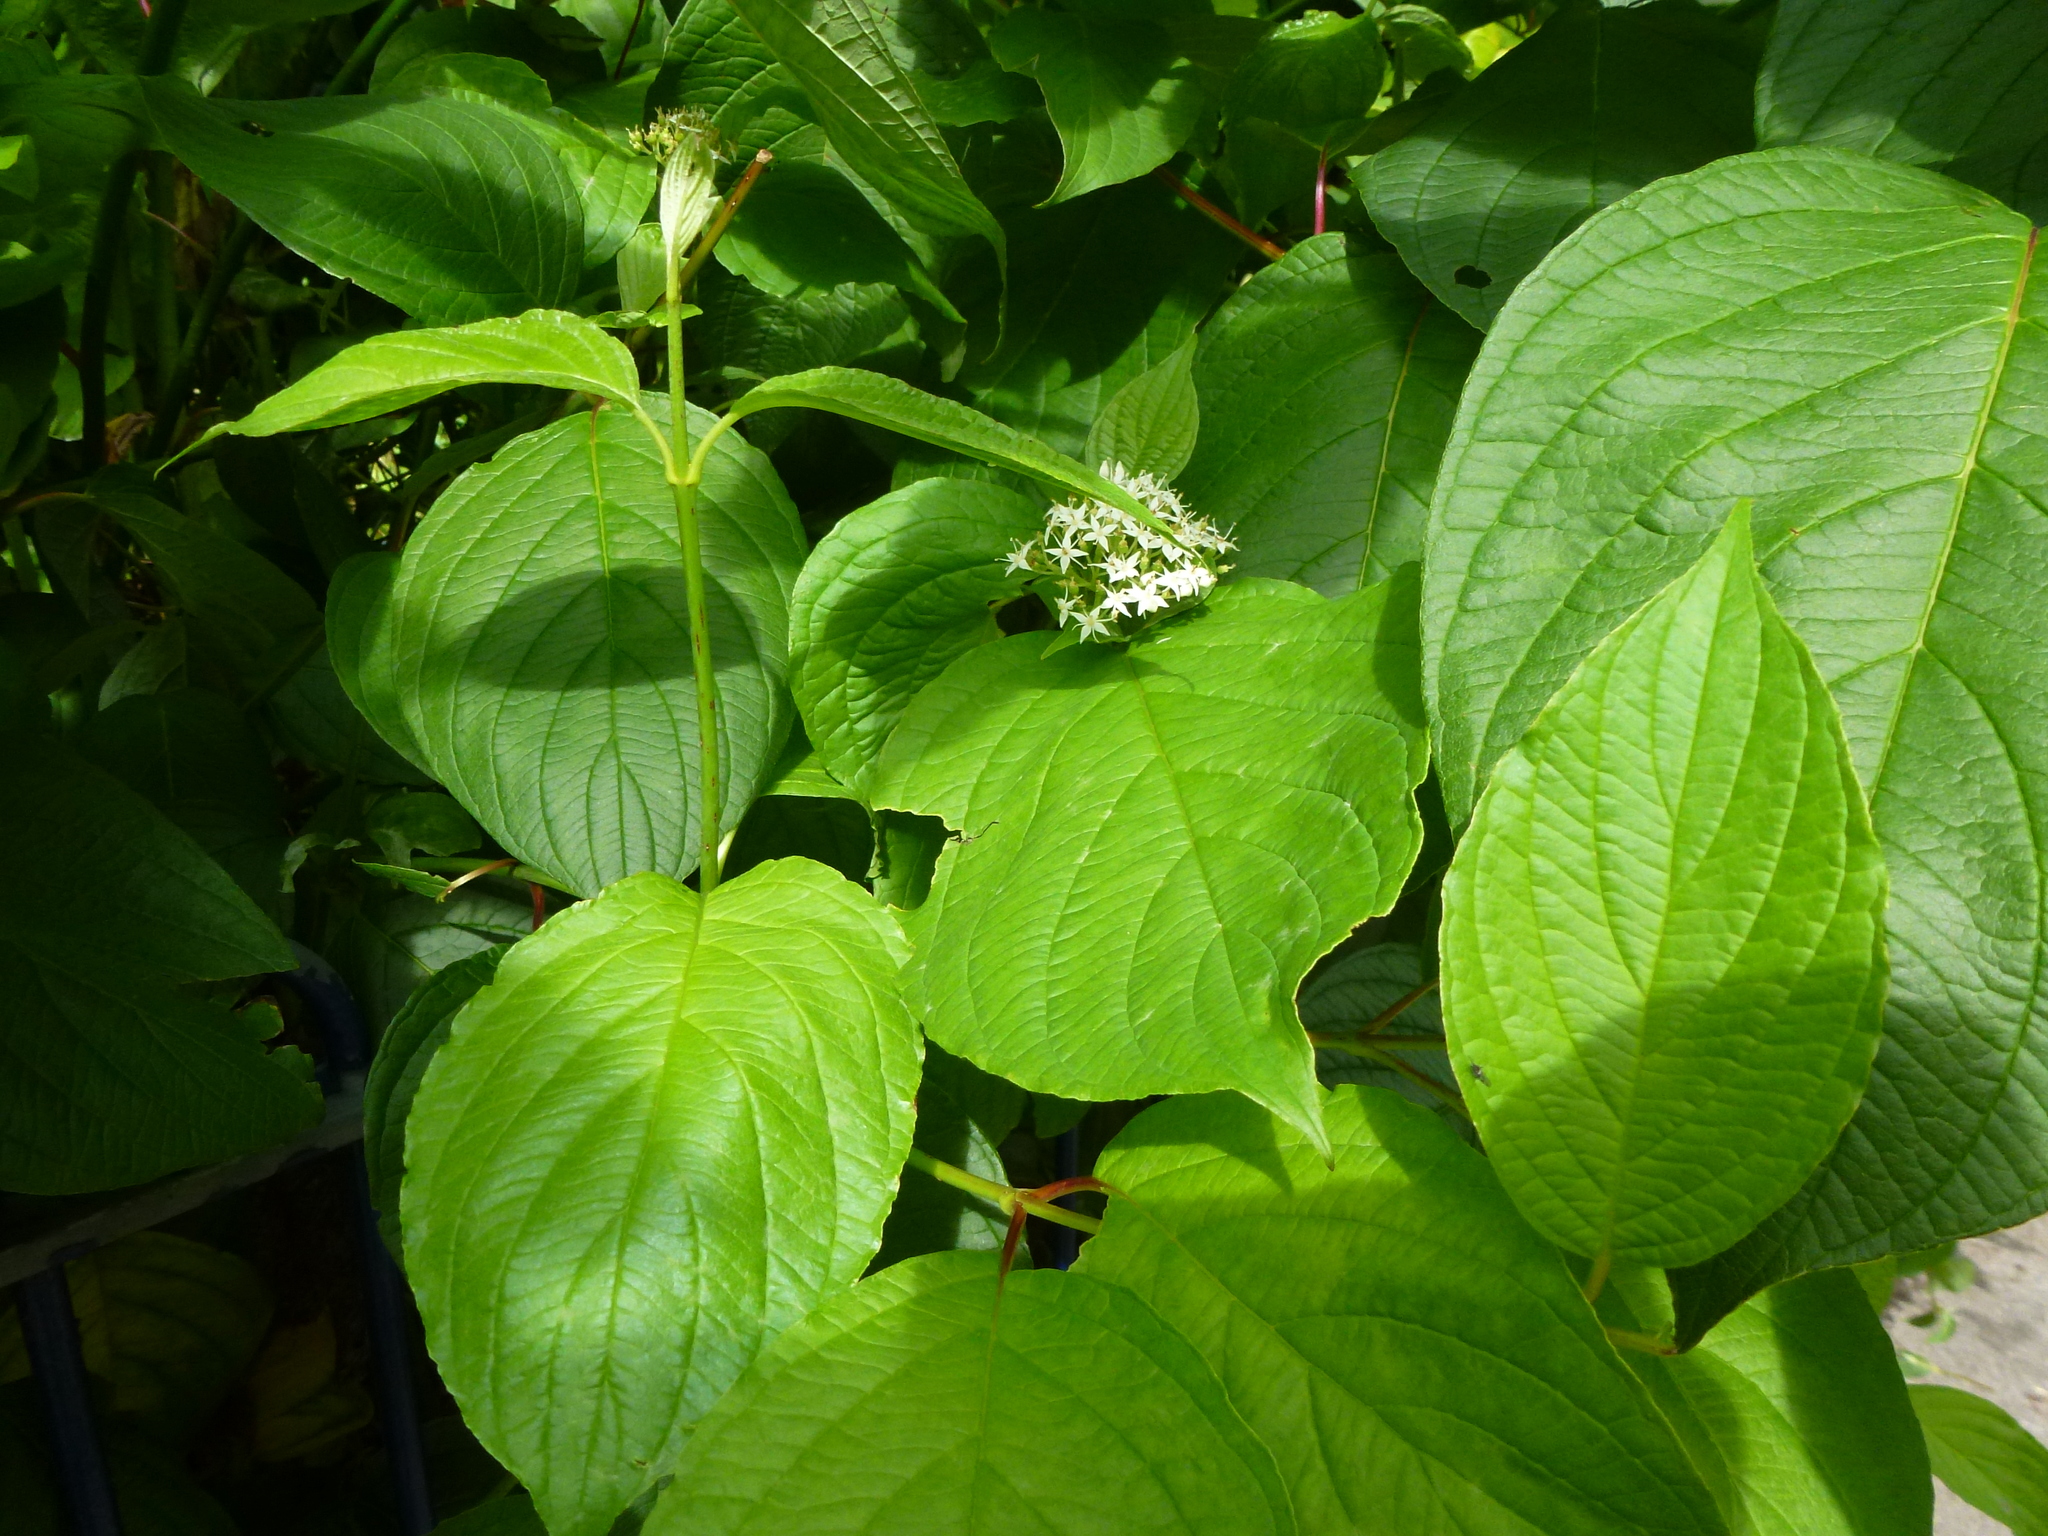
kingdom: Plantae
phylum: Tracheophyta
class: Magnoliopsida
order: Cornales
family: Cornaceae
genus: Cornus
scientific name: Cornus sanguinea
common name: Dogwood
